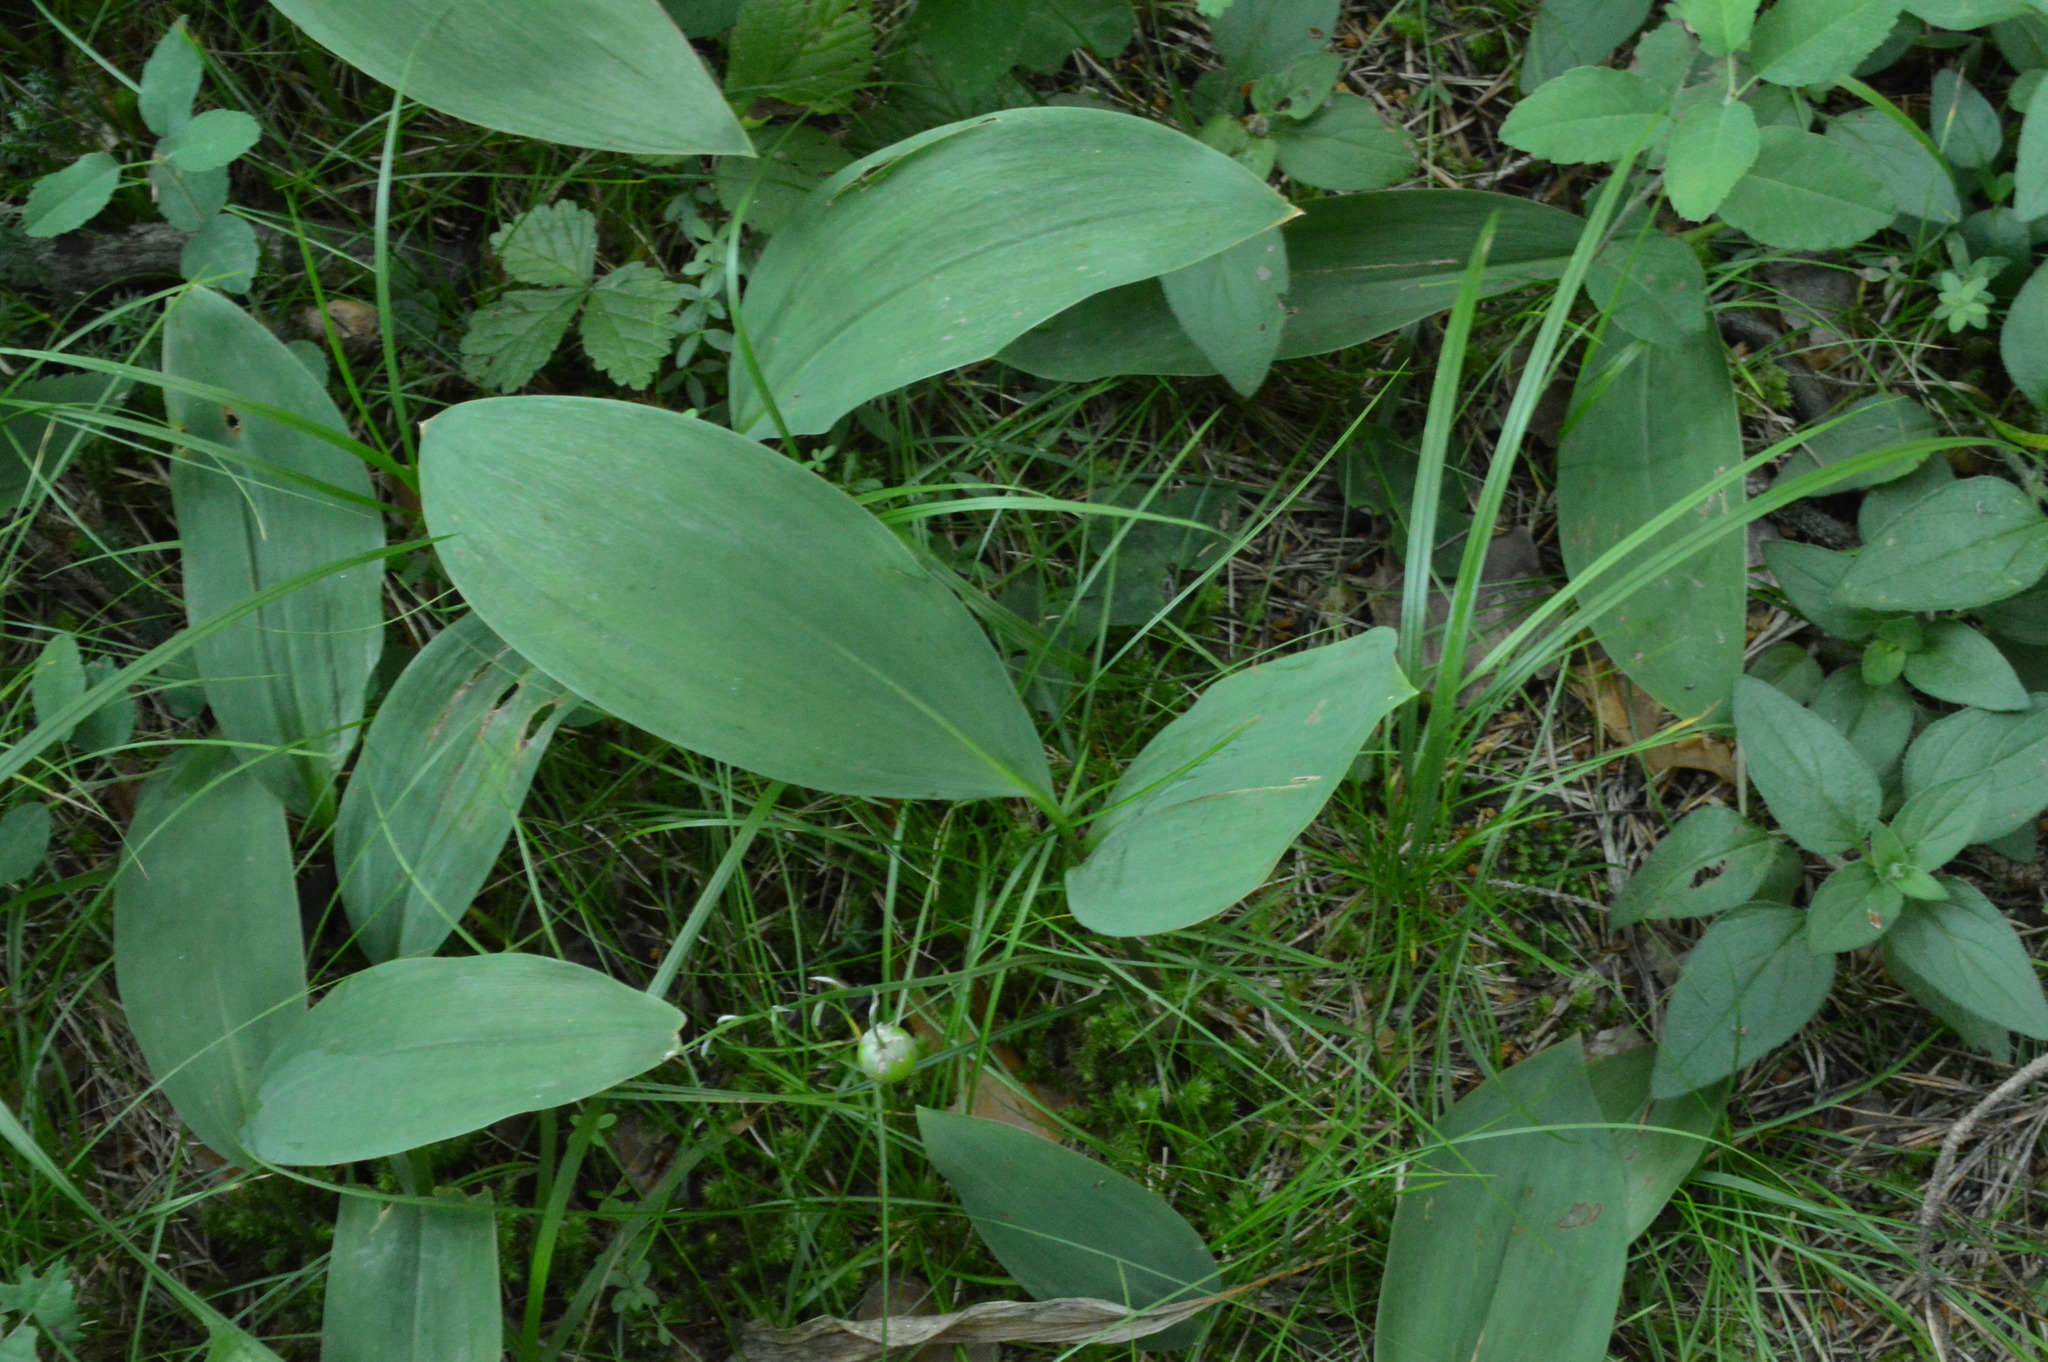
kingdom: Plantae
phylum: Tracheophyta
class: Liliopsida
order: Asparagales
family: Asparagaceae
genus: Convallaria
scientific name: Convallaria majalis
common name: Lily-of-the-valley
